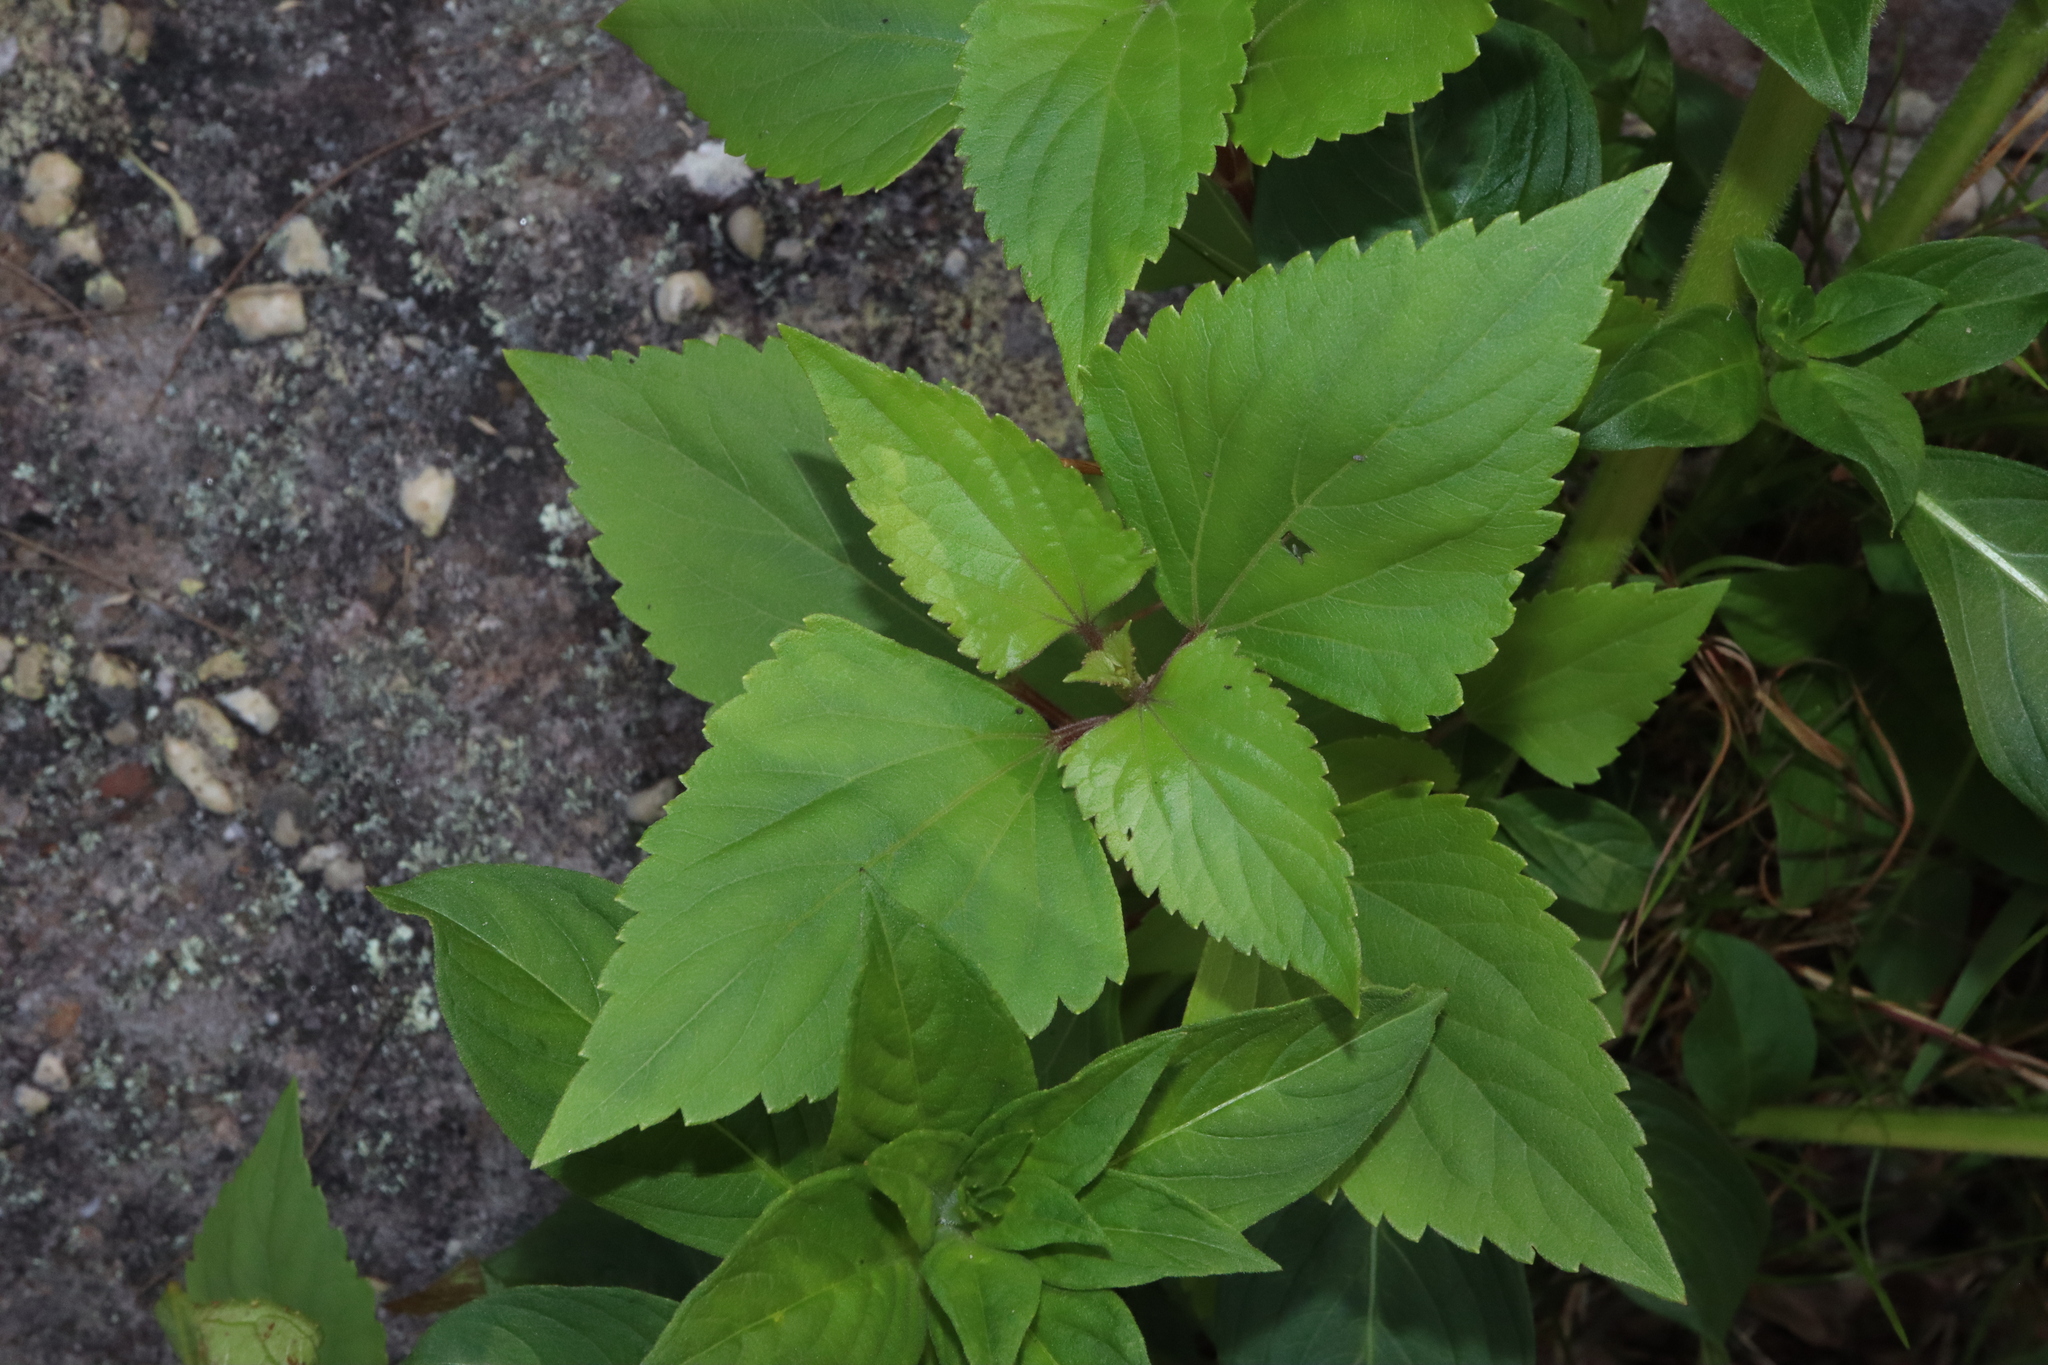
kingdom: Plantae
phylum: Tracheophyta
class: Magnoliopsida
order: Asterales
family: Asteraceae
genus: Ageratina
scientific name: Ageratina adenophora
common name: Sticky snakeroot
